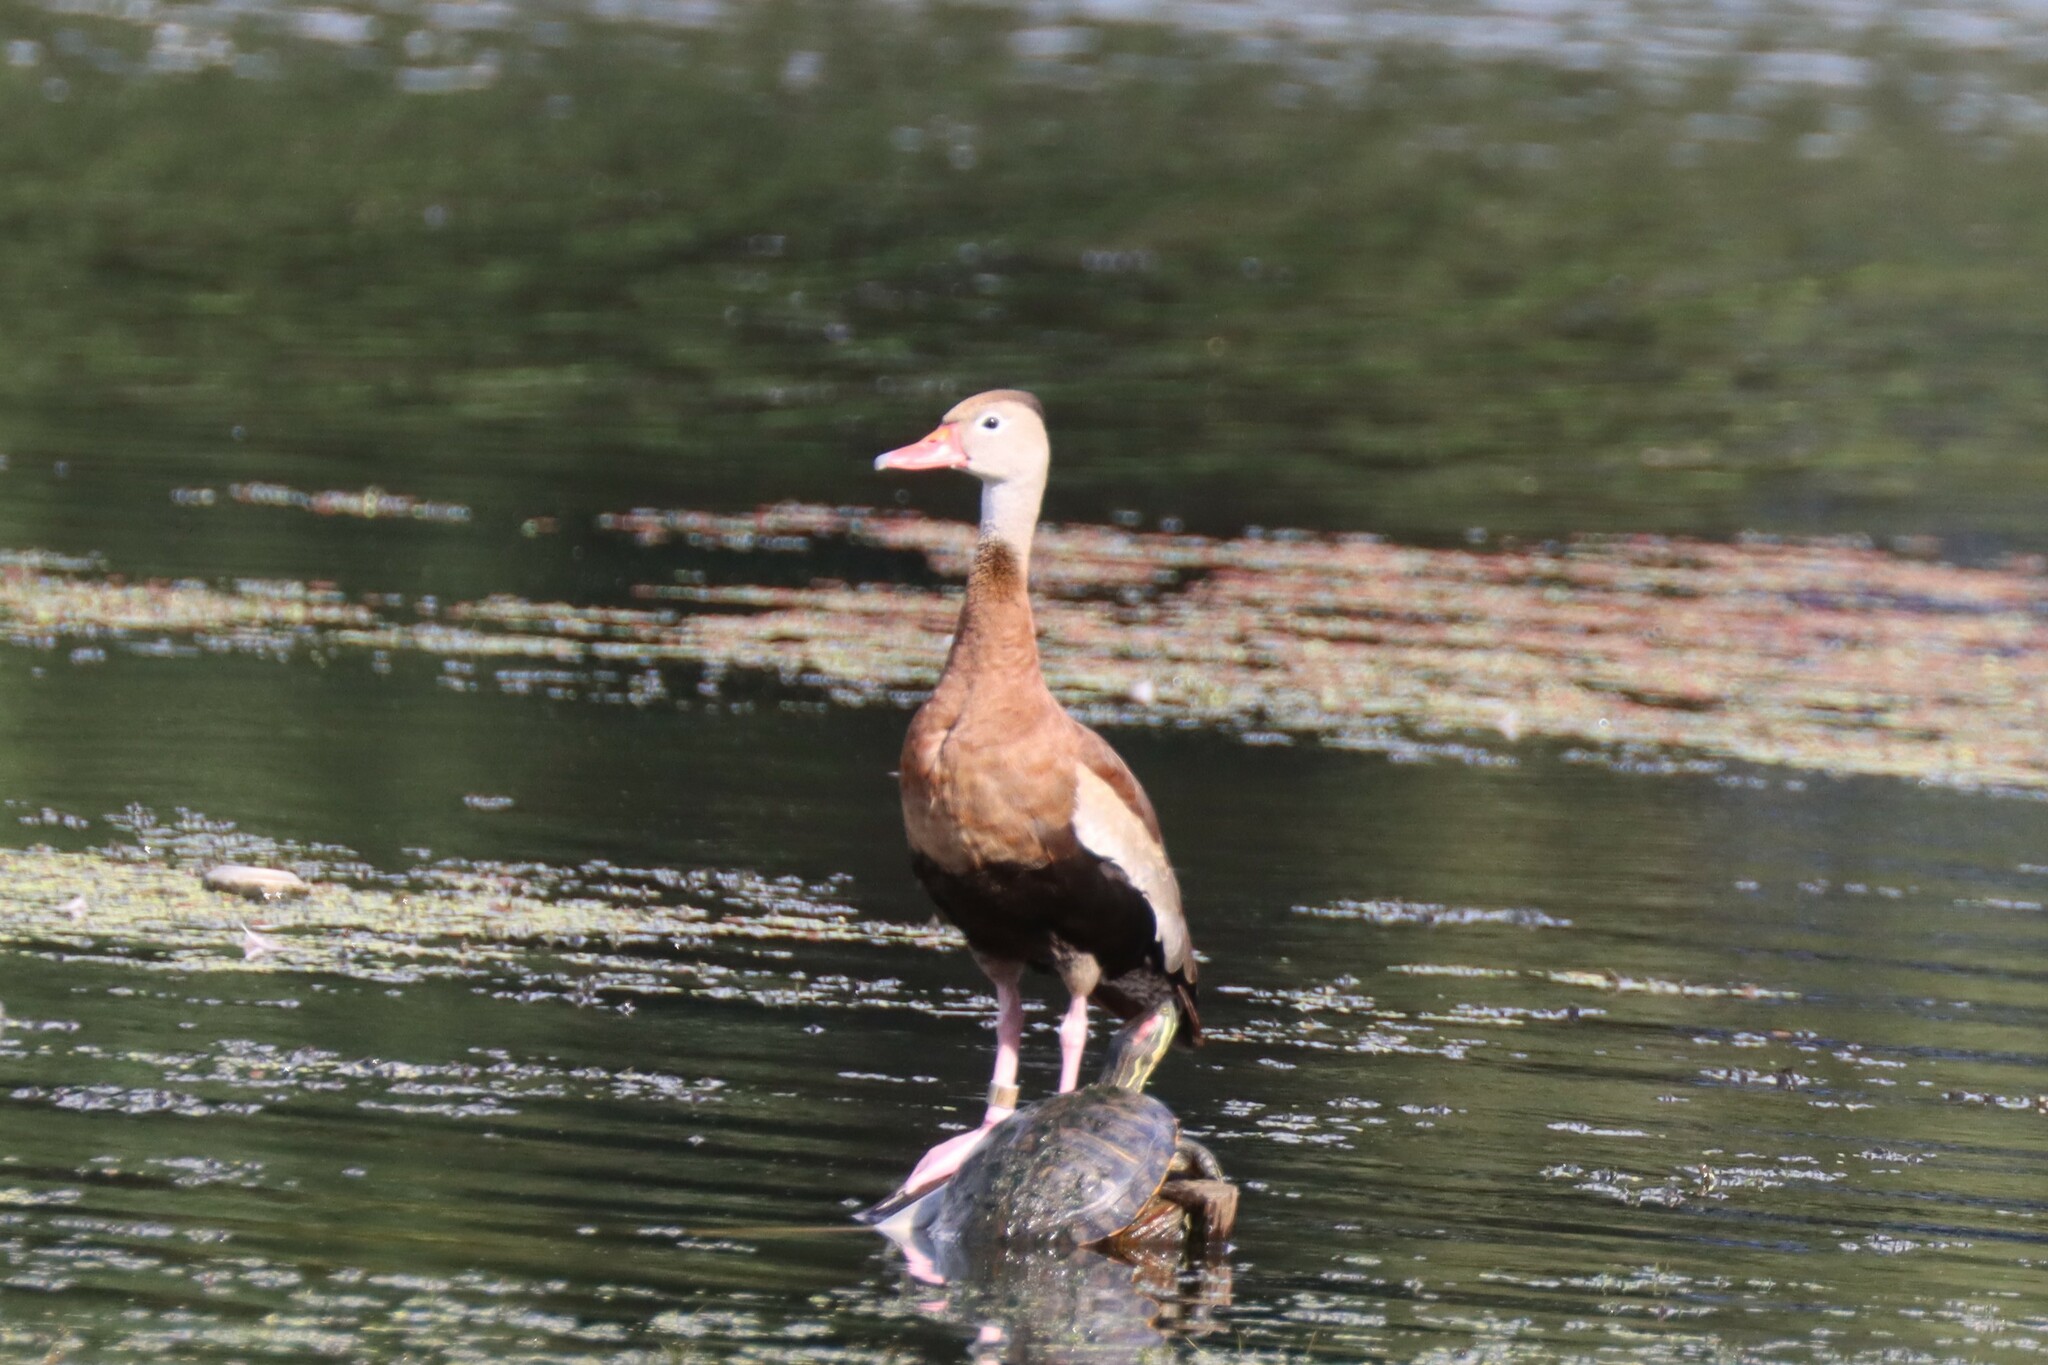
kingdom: Animalia
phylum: Chordata
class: Aves
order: Anseriformes
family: Anatidae
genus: Dendrocygna
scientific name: Dendrocygna autumnalis
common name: Black-bellied whistling duck
